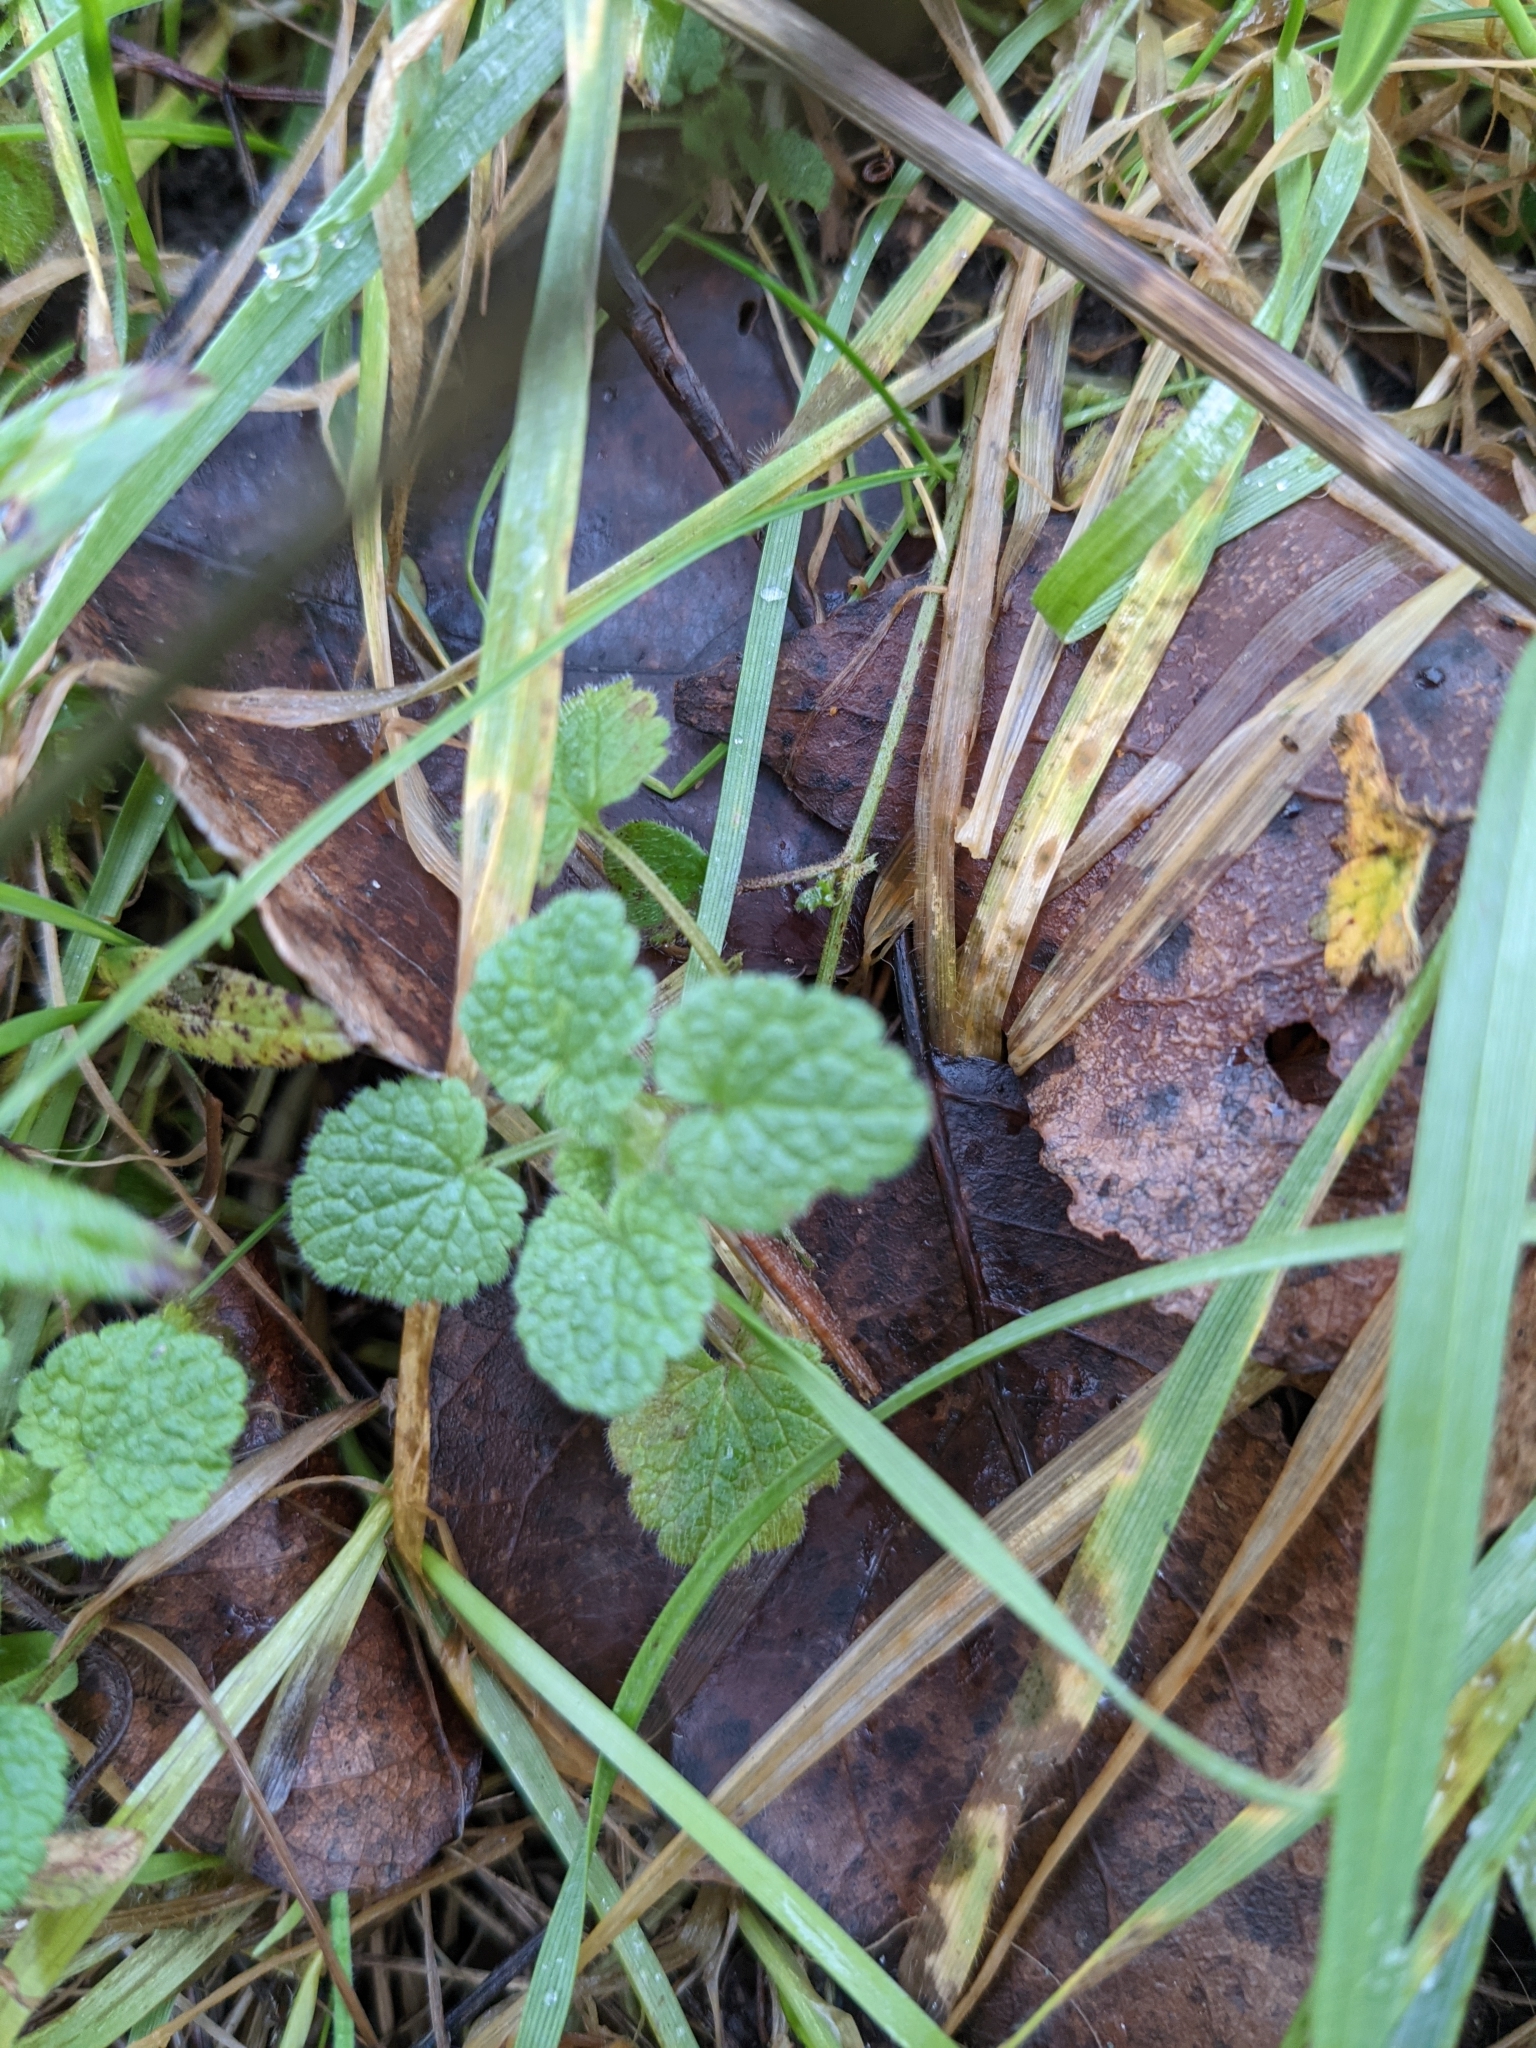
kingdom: Plantae
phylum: Tracheophyta
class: Magnoliopsida
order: Lamiales
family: Lamiaceae
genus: Lamium
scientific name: Lamium purpureum
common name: Red dead-nettle
